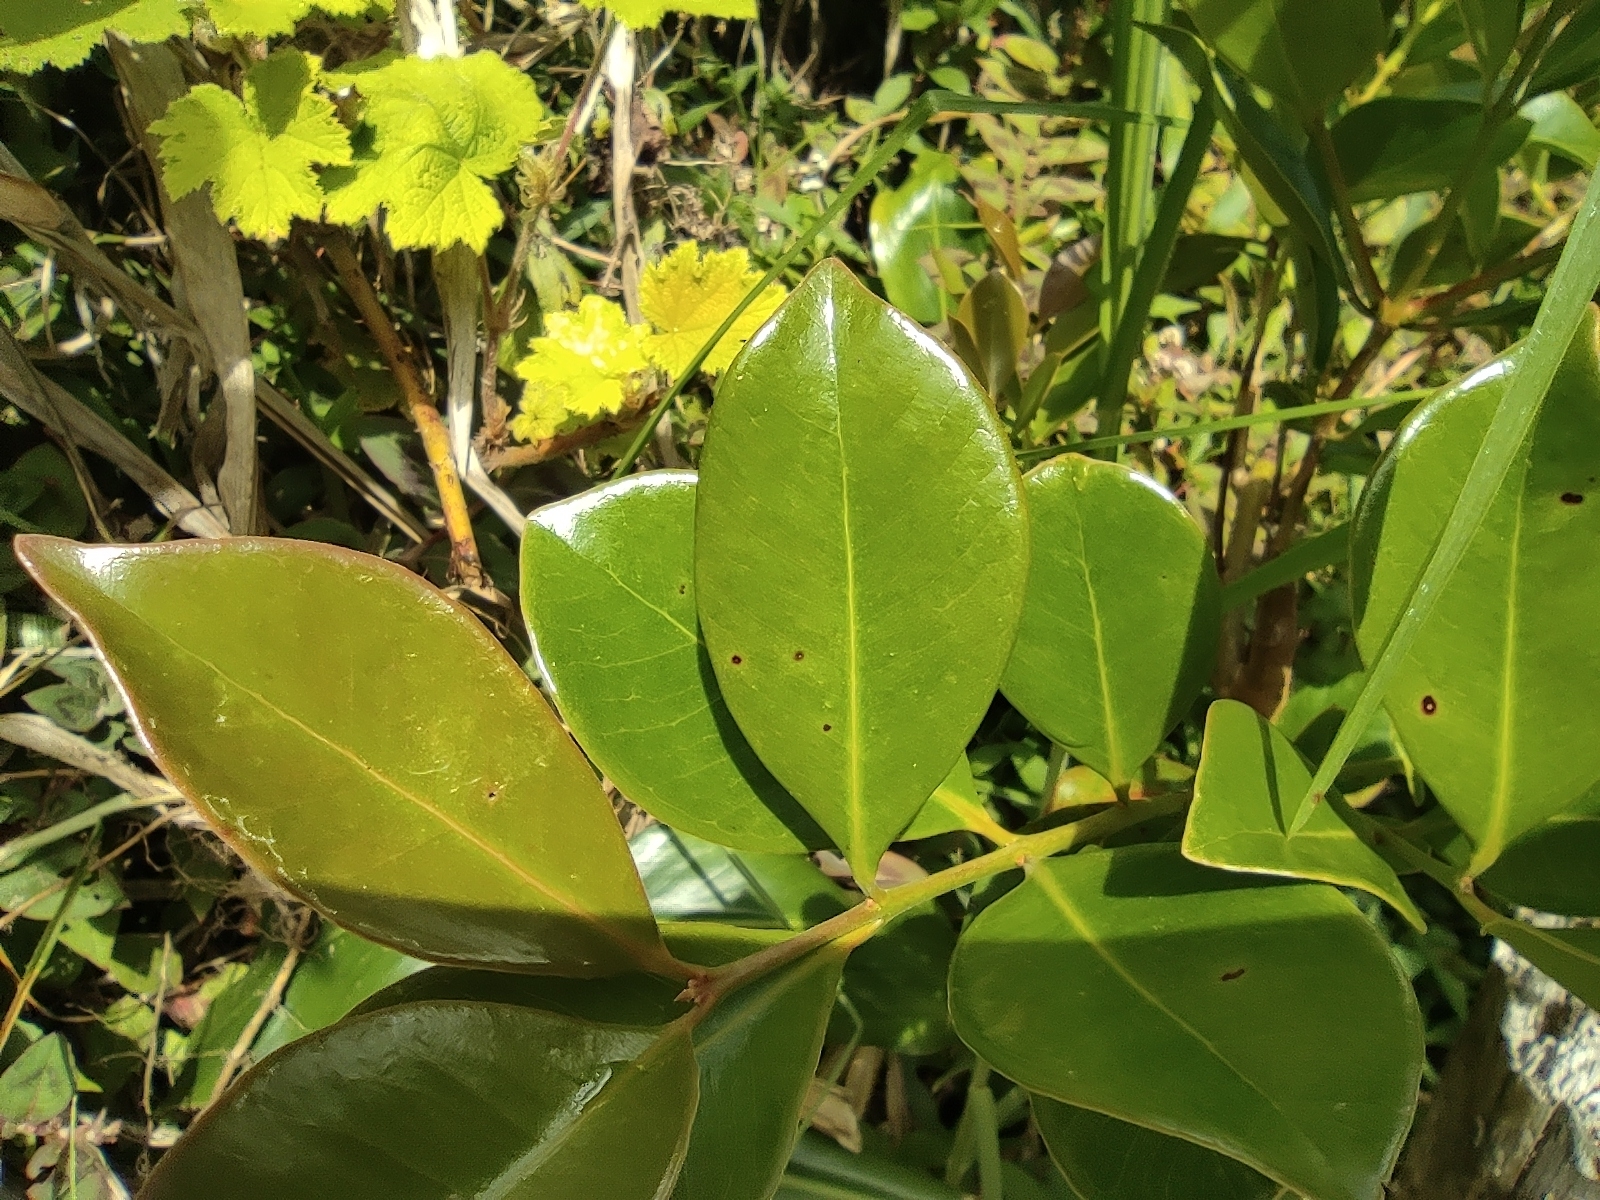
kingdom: Plantae
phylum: Tracheophyta
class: Magnoliopsida
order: Myrtales
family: Myrtaceae
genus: Psidium
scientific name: Psidium cattleianum
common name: Strawberry guava
